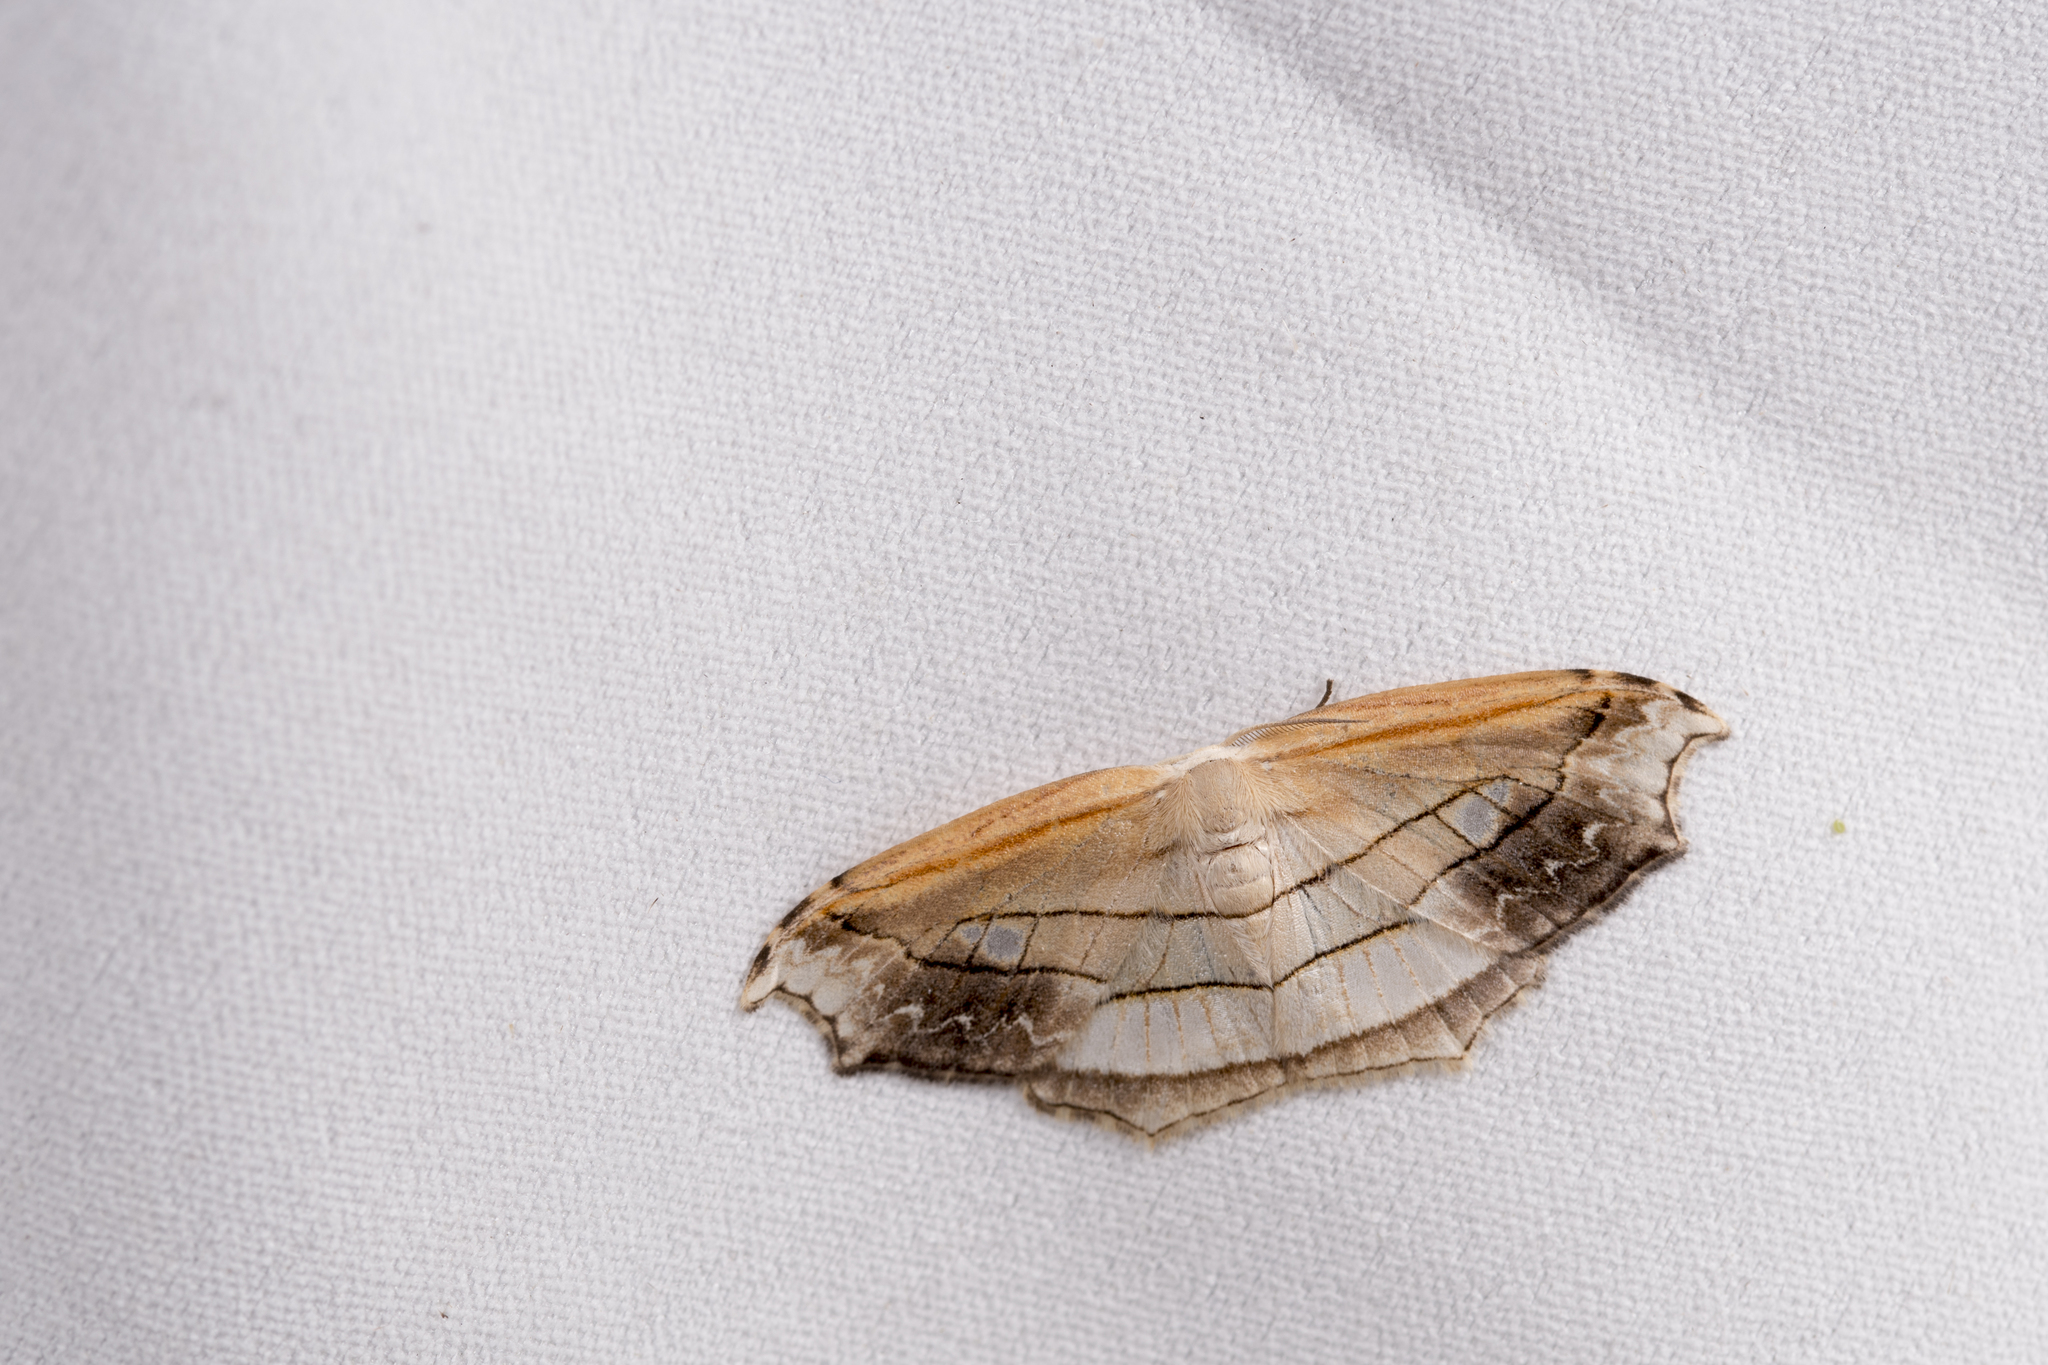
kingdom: Animalia
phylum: Arthropoda
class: Insecta
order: Lepidoptera
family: Drepanidae
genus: Leucoblepsis
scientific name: Leucoblepsis taiwanensis
